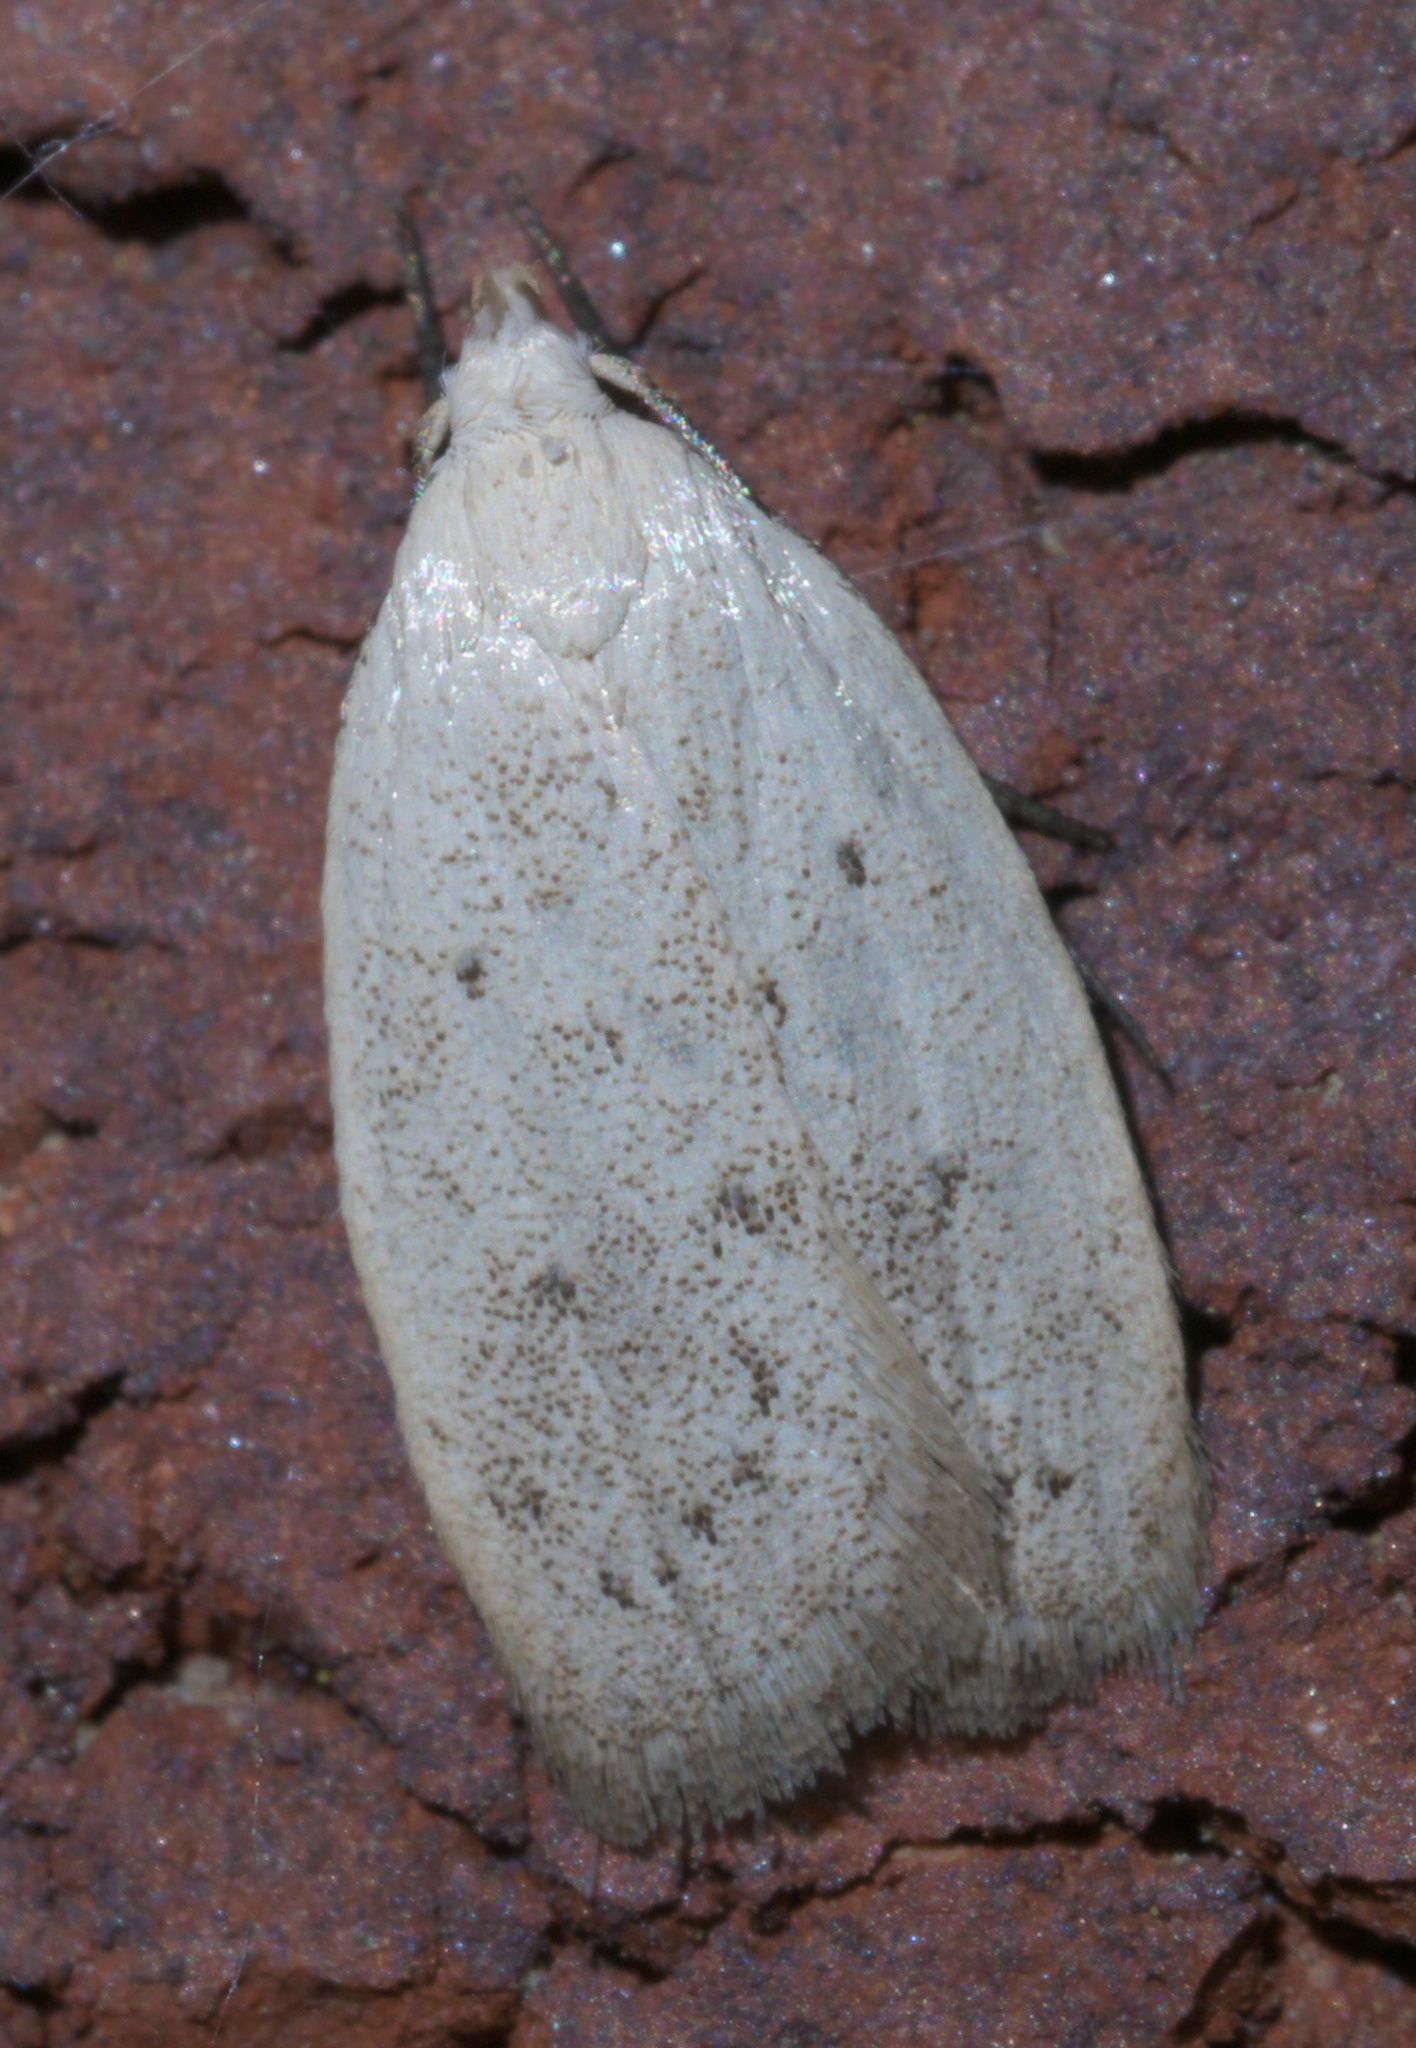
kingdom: Animalia
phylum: Arthropoda
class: Insecta
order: Lepidoptera
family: Oecophoridae
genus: Inga
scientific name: Inga cretacea
